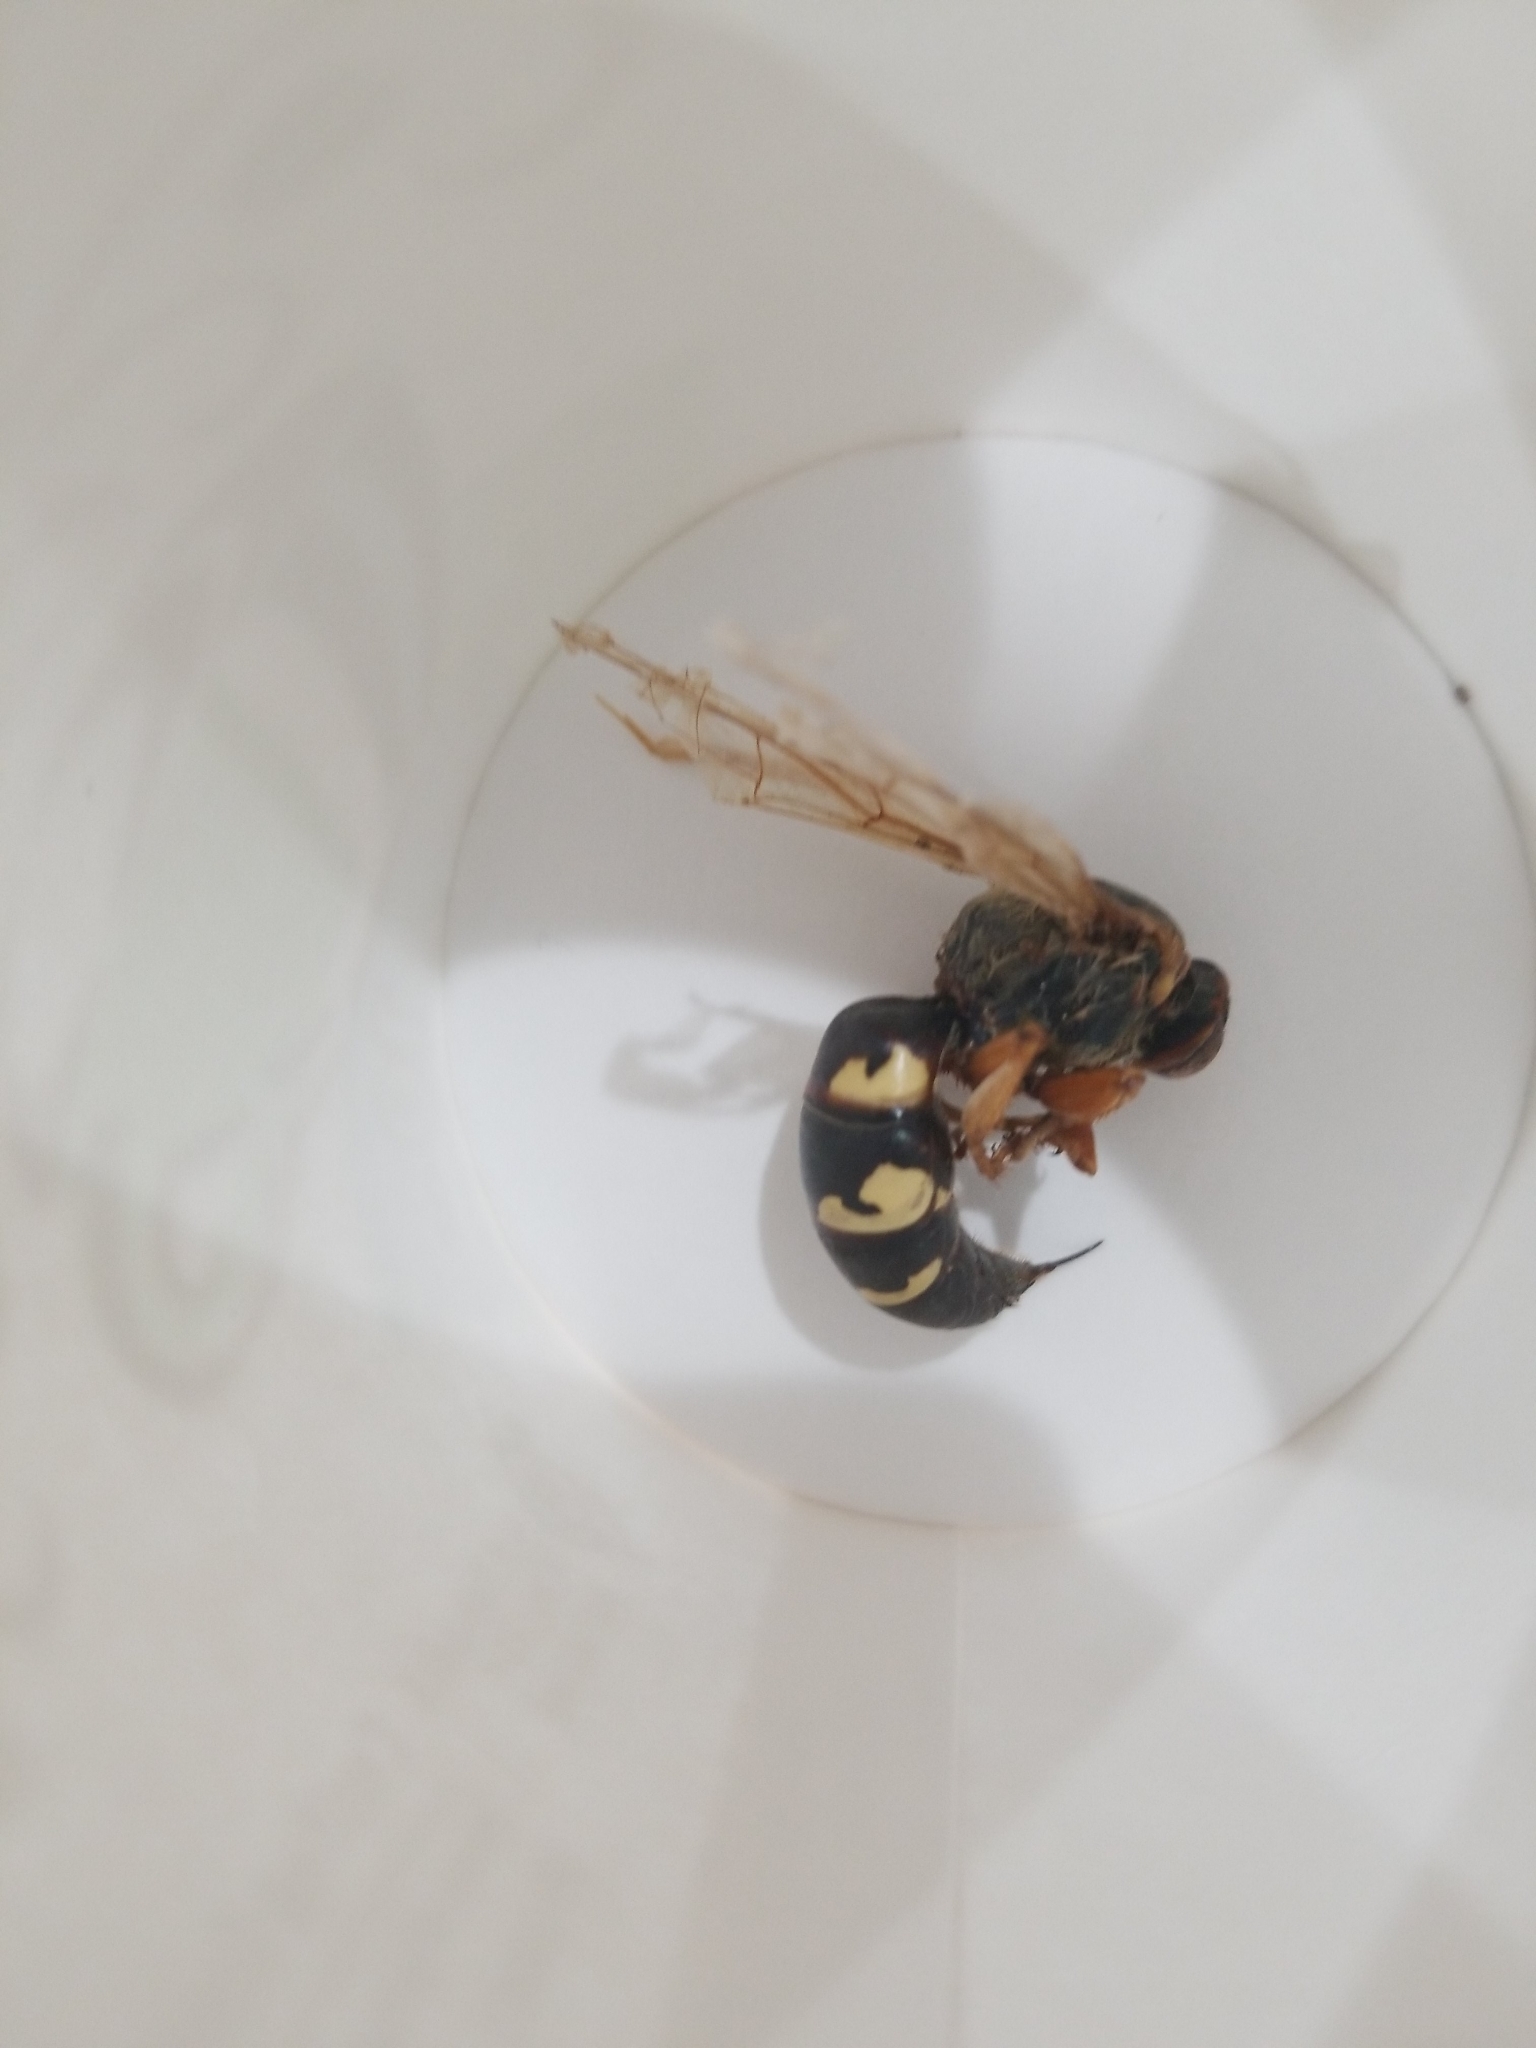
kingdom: Animalia
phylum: Arthropoda
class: Insecta
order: Hymenoptera
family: Crabronidae
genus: Sphecius
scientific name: Sphecius speciosus
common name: Cicada killer
